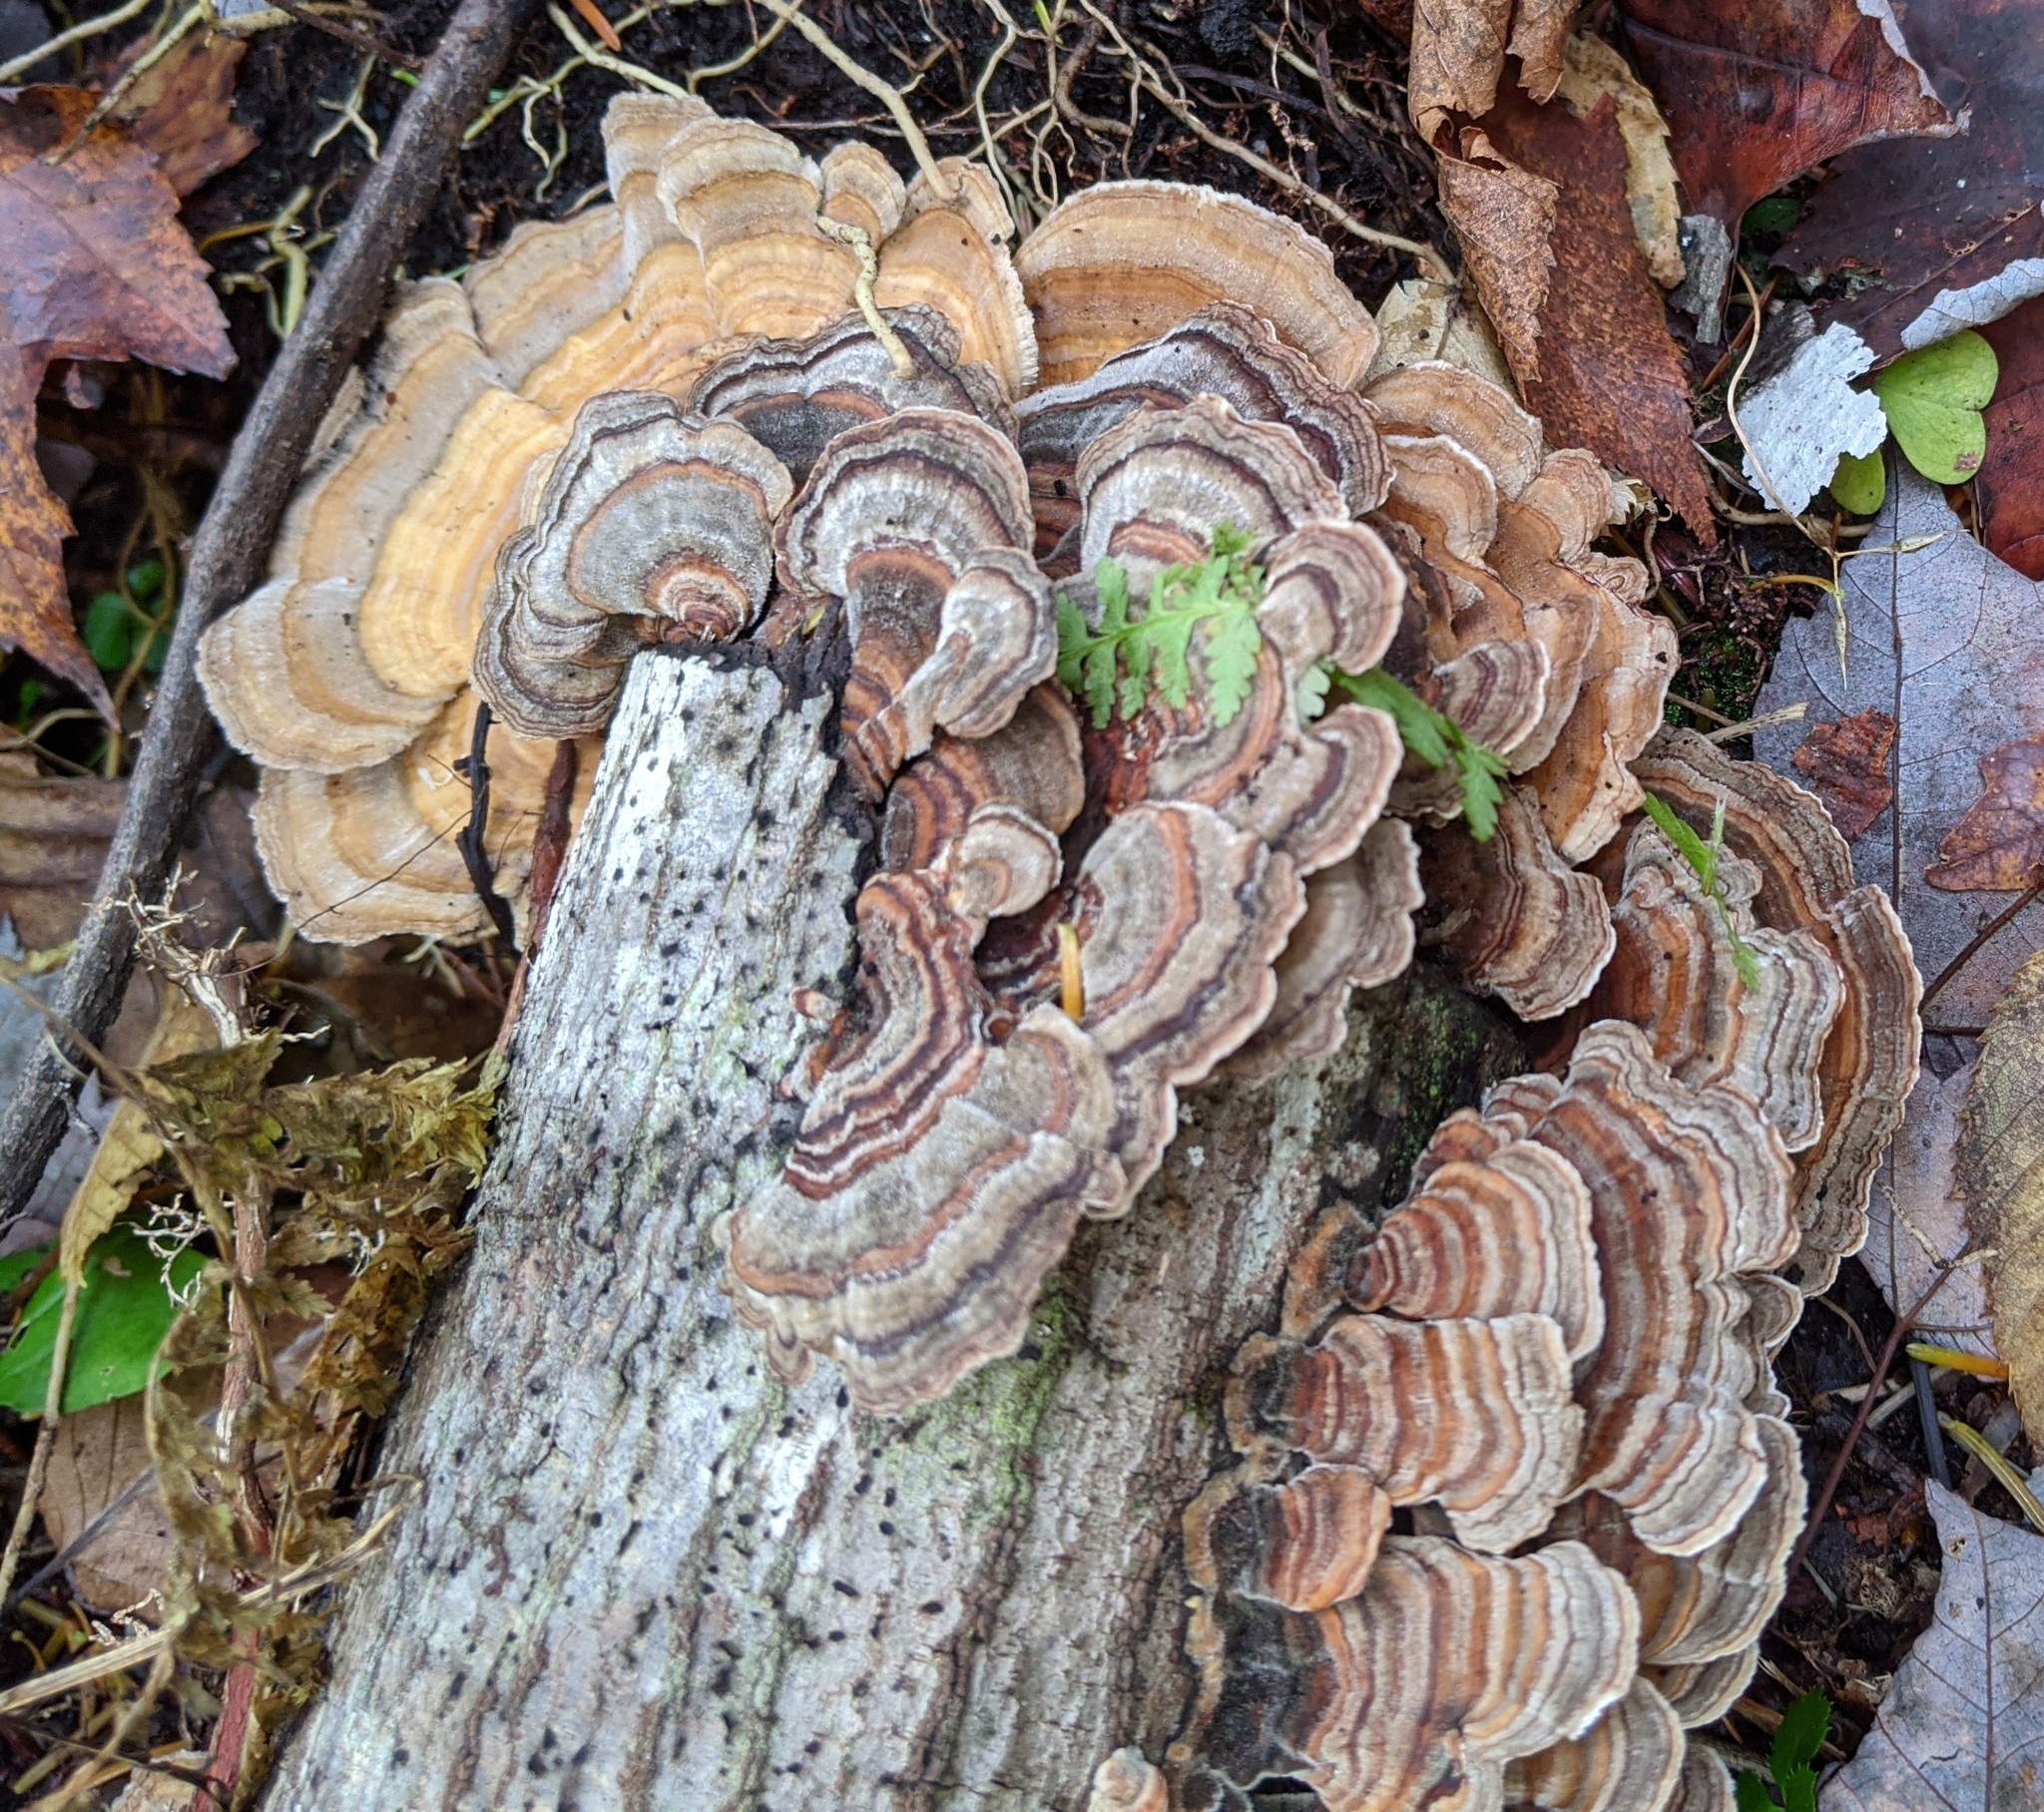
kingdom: Fungi
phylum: Basidiomycota
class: Agaricomycetes
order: Polyporales
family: Polyporaceae
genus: Trametes
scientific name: Trametes versicolor
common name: Turkeytail
